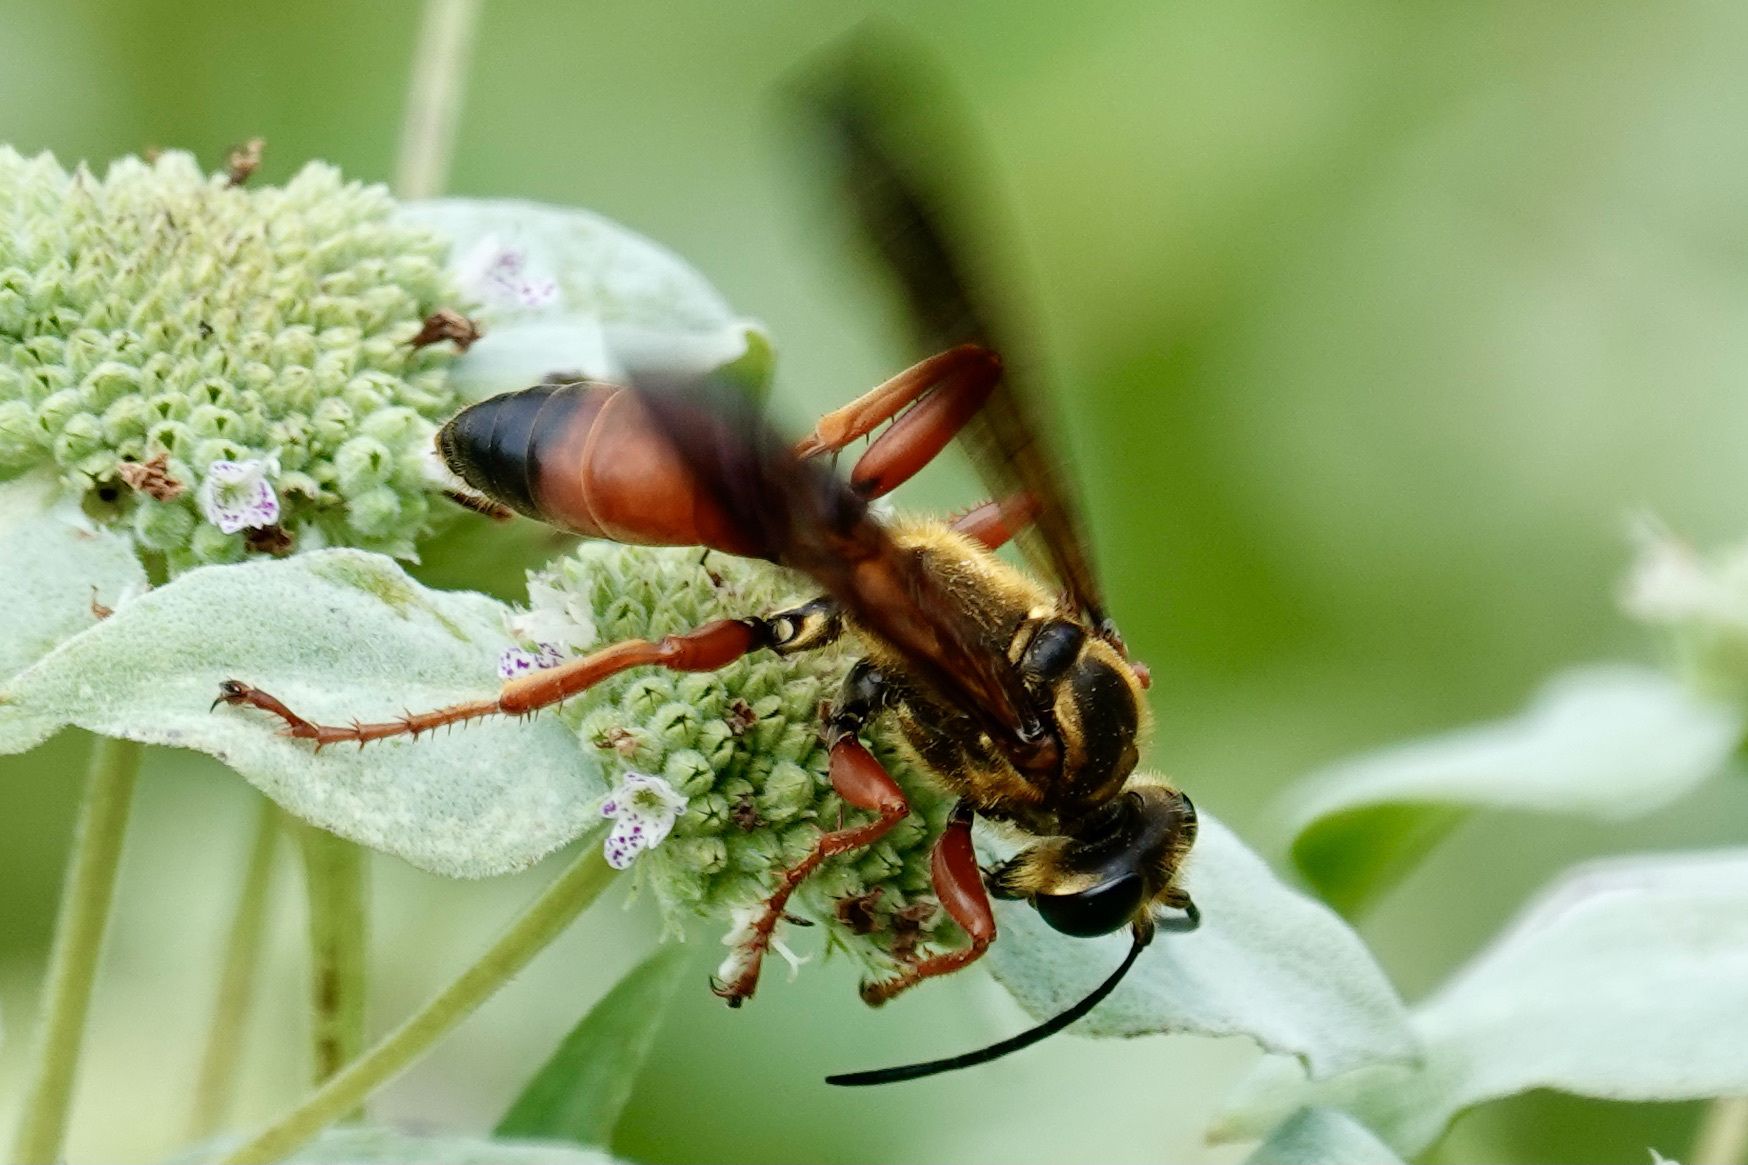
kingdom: Animalia
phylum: Arthropoda
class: Insecta
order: Hymenoptera
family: Sphecidae
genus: Sphex
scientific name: Sphex ichneumoneus
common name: Great golden digger wasp
